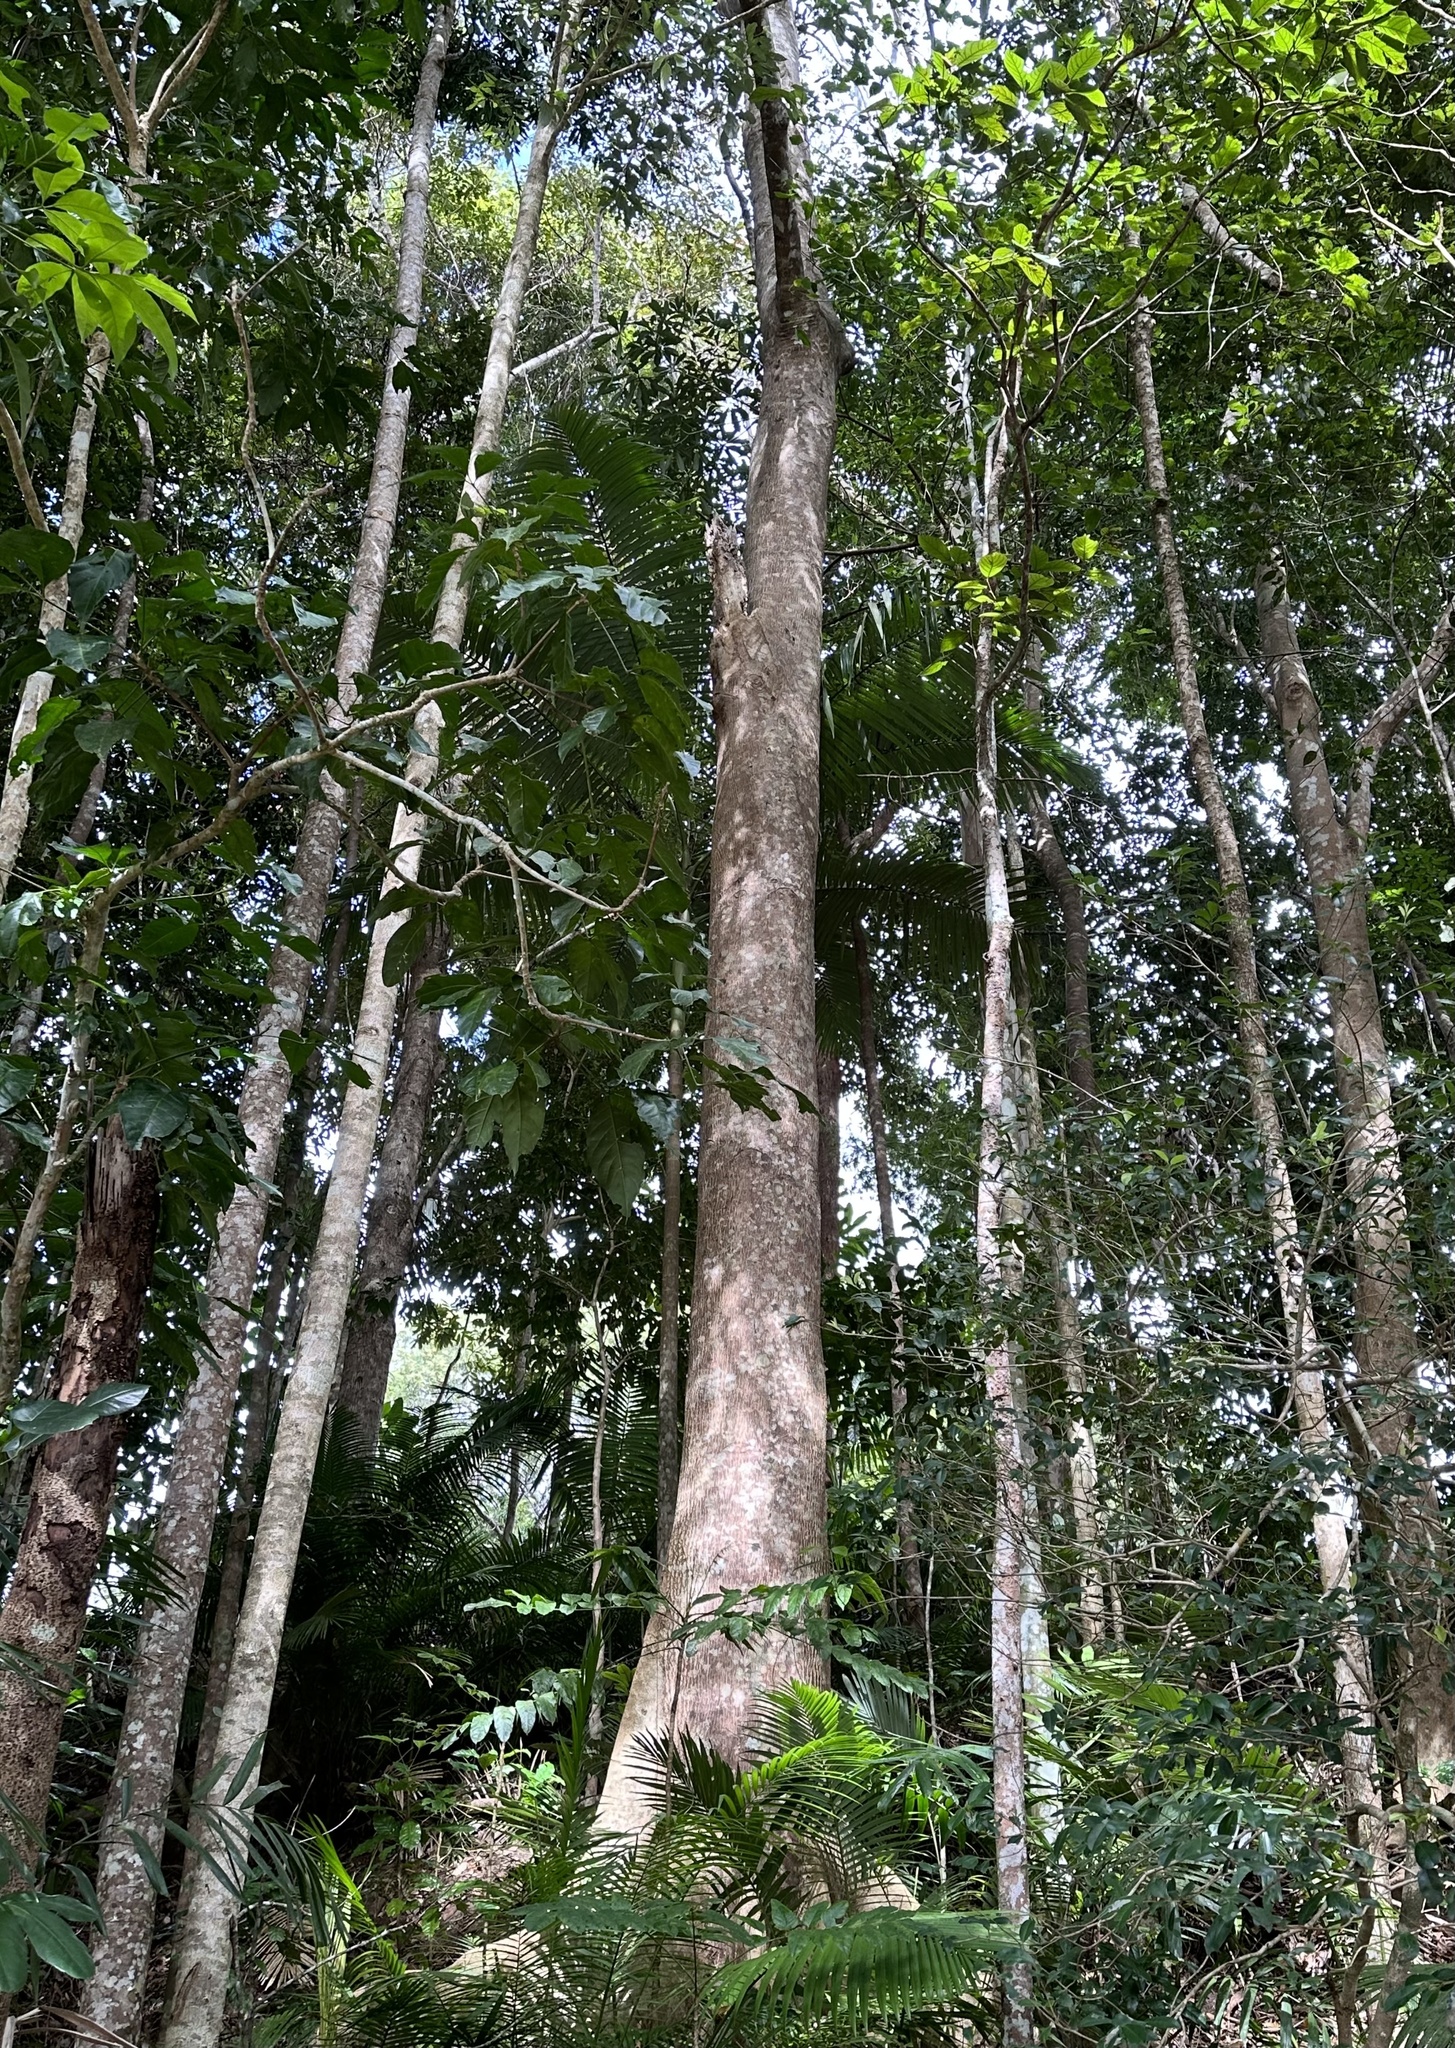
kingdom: Plantae
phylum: Tracheophyta
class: Magnoliopsida
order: Oxalidales
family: Elaeocarpaceae
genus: Elaeocarpus
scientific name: Elaeocarpus angustifolius
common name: Blue marble tree
